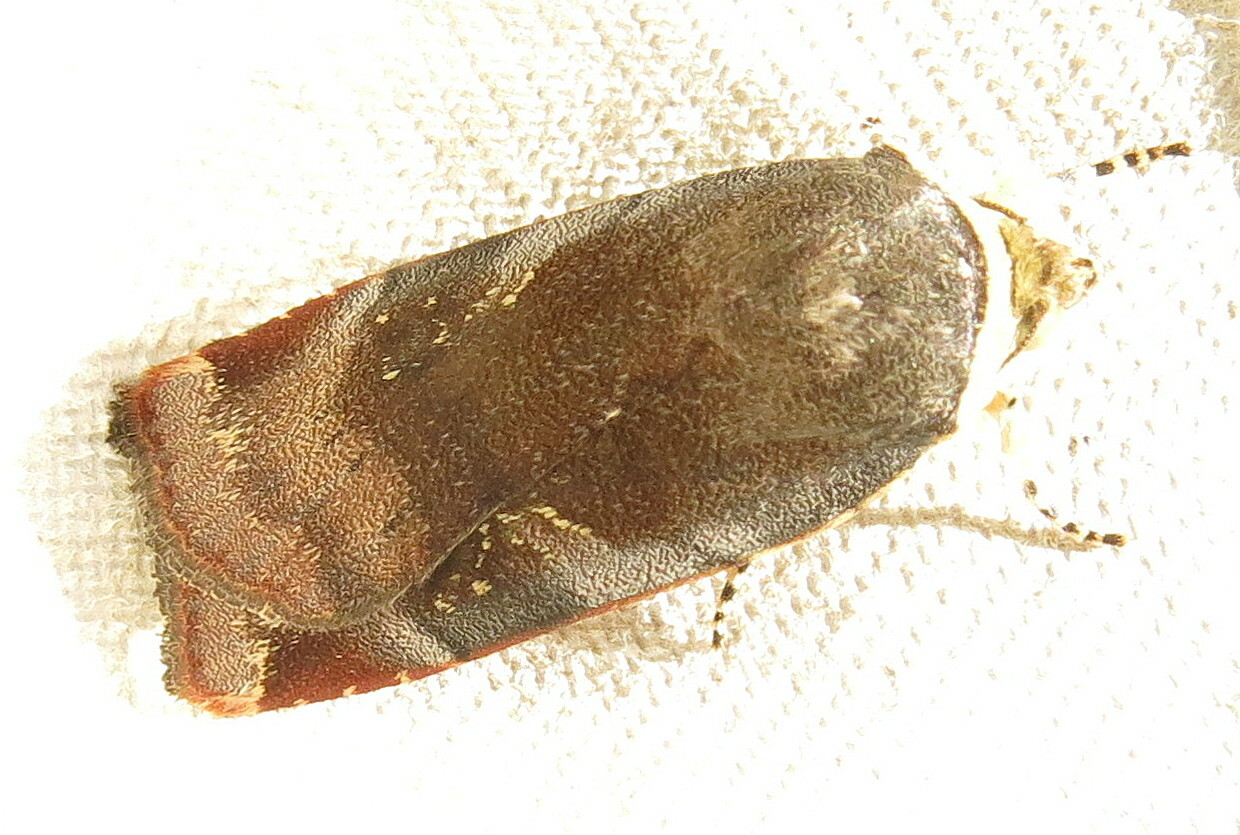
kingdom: Animalia
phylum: Arthropoda
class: Insecta
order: Lepidoptera
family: Noctuidae
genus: Noctua
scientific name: Noctua janthe
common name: Lesser broad-bordered yellow underwing
